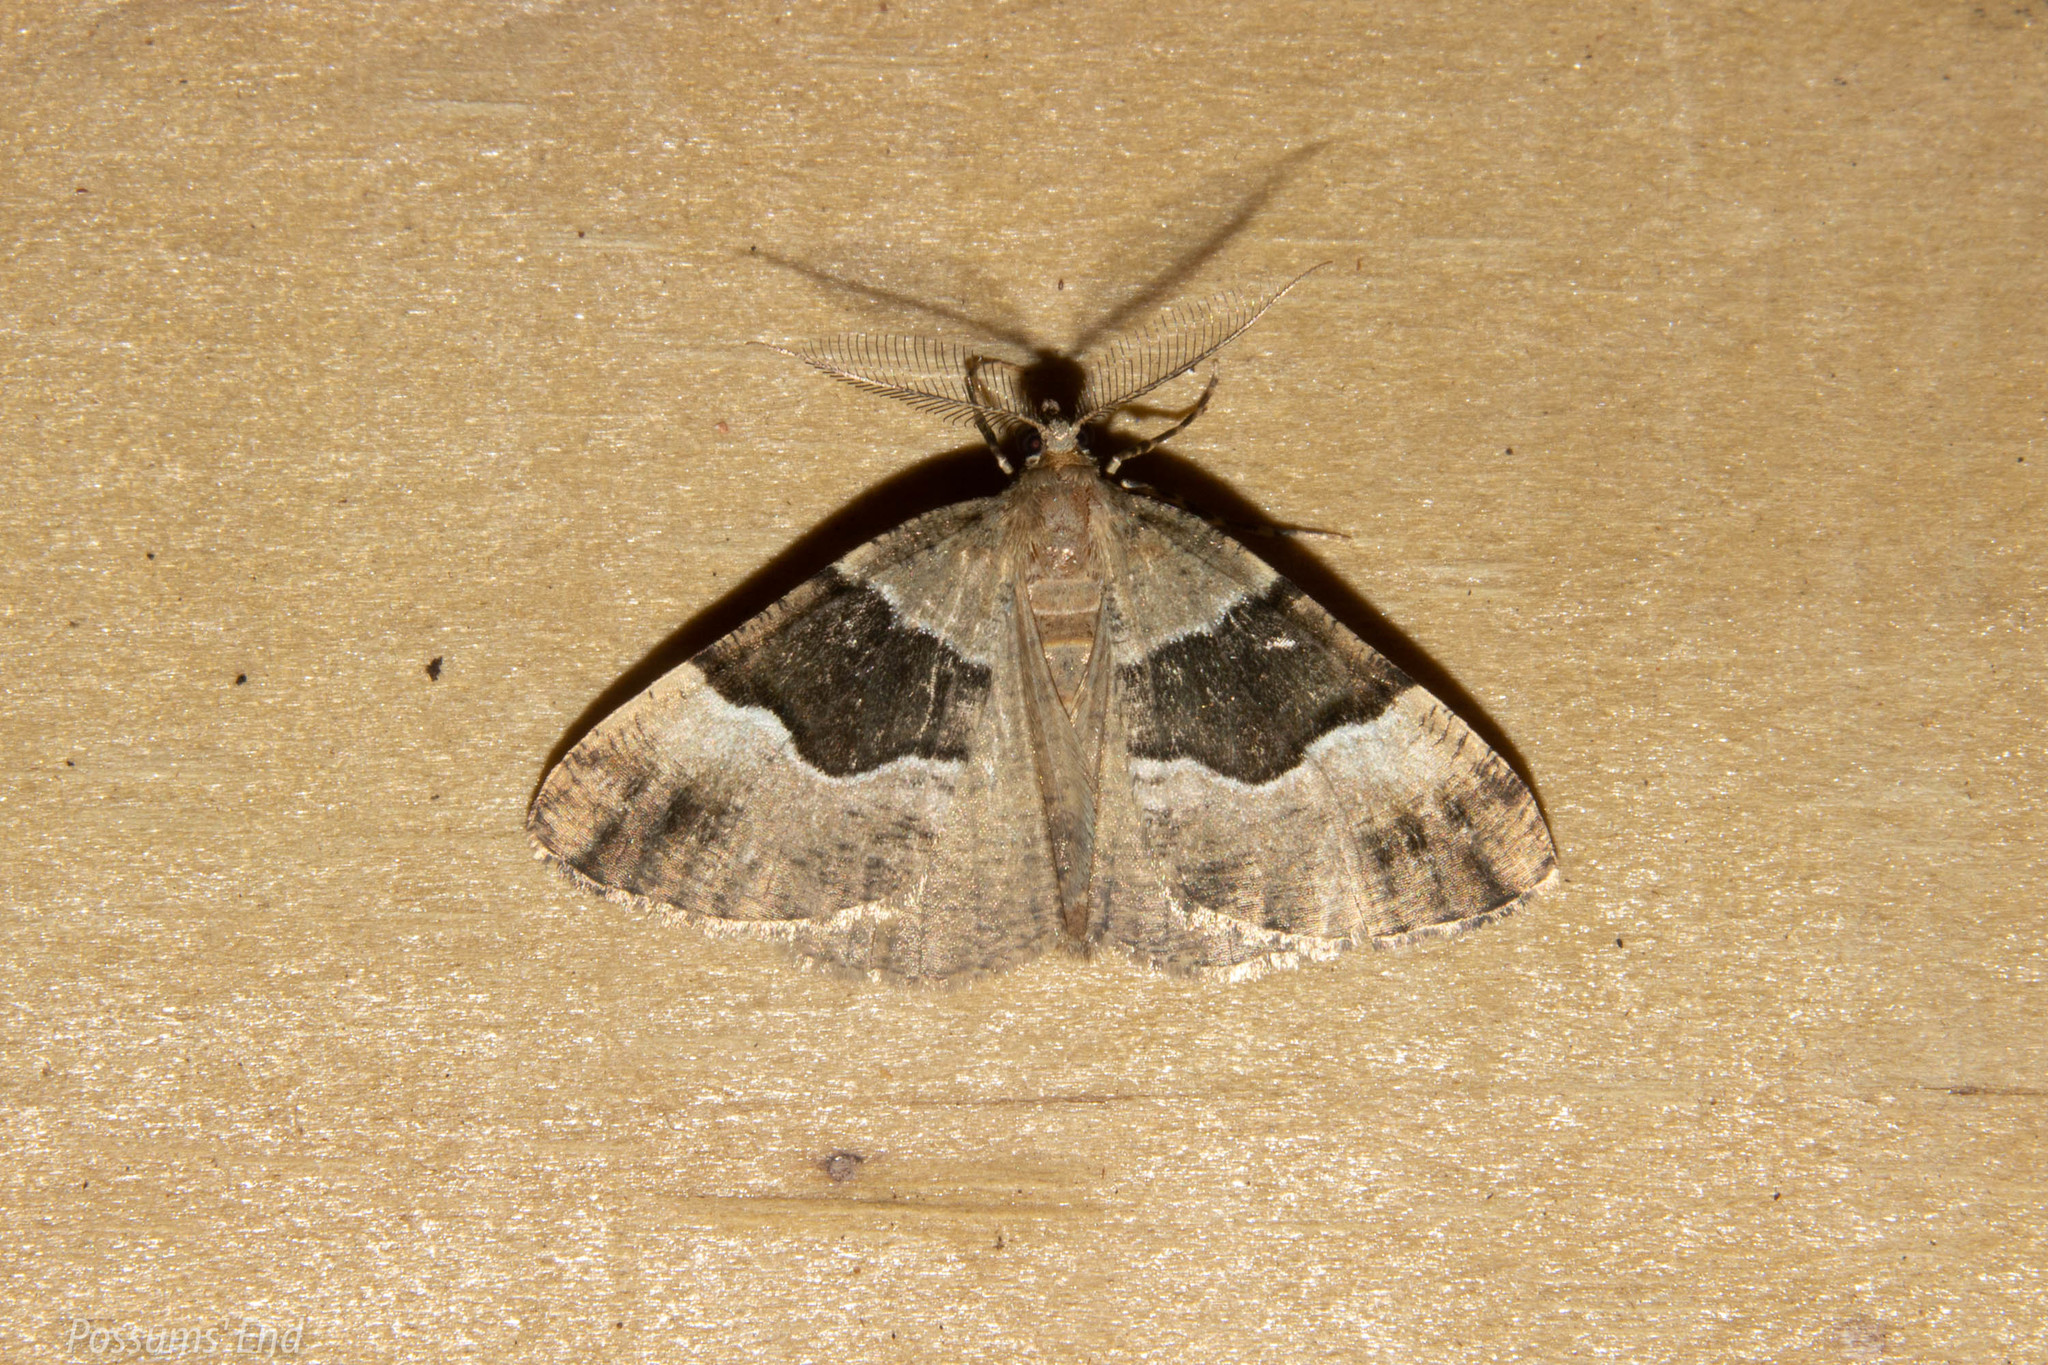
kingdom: Animalia
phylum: Arthropoda
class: Insecta
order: Lepidoptera
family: Geometridae
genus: Pseudocoremia
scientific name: Pseudocoremia
